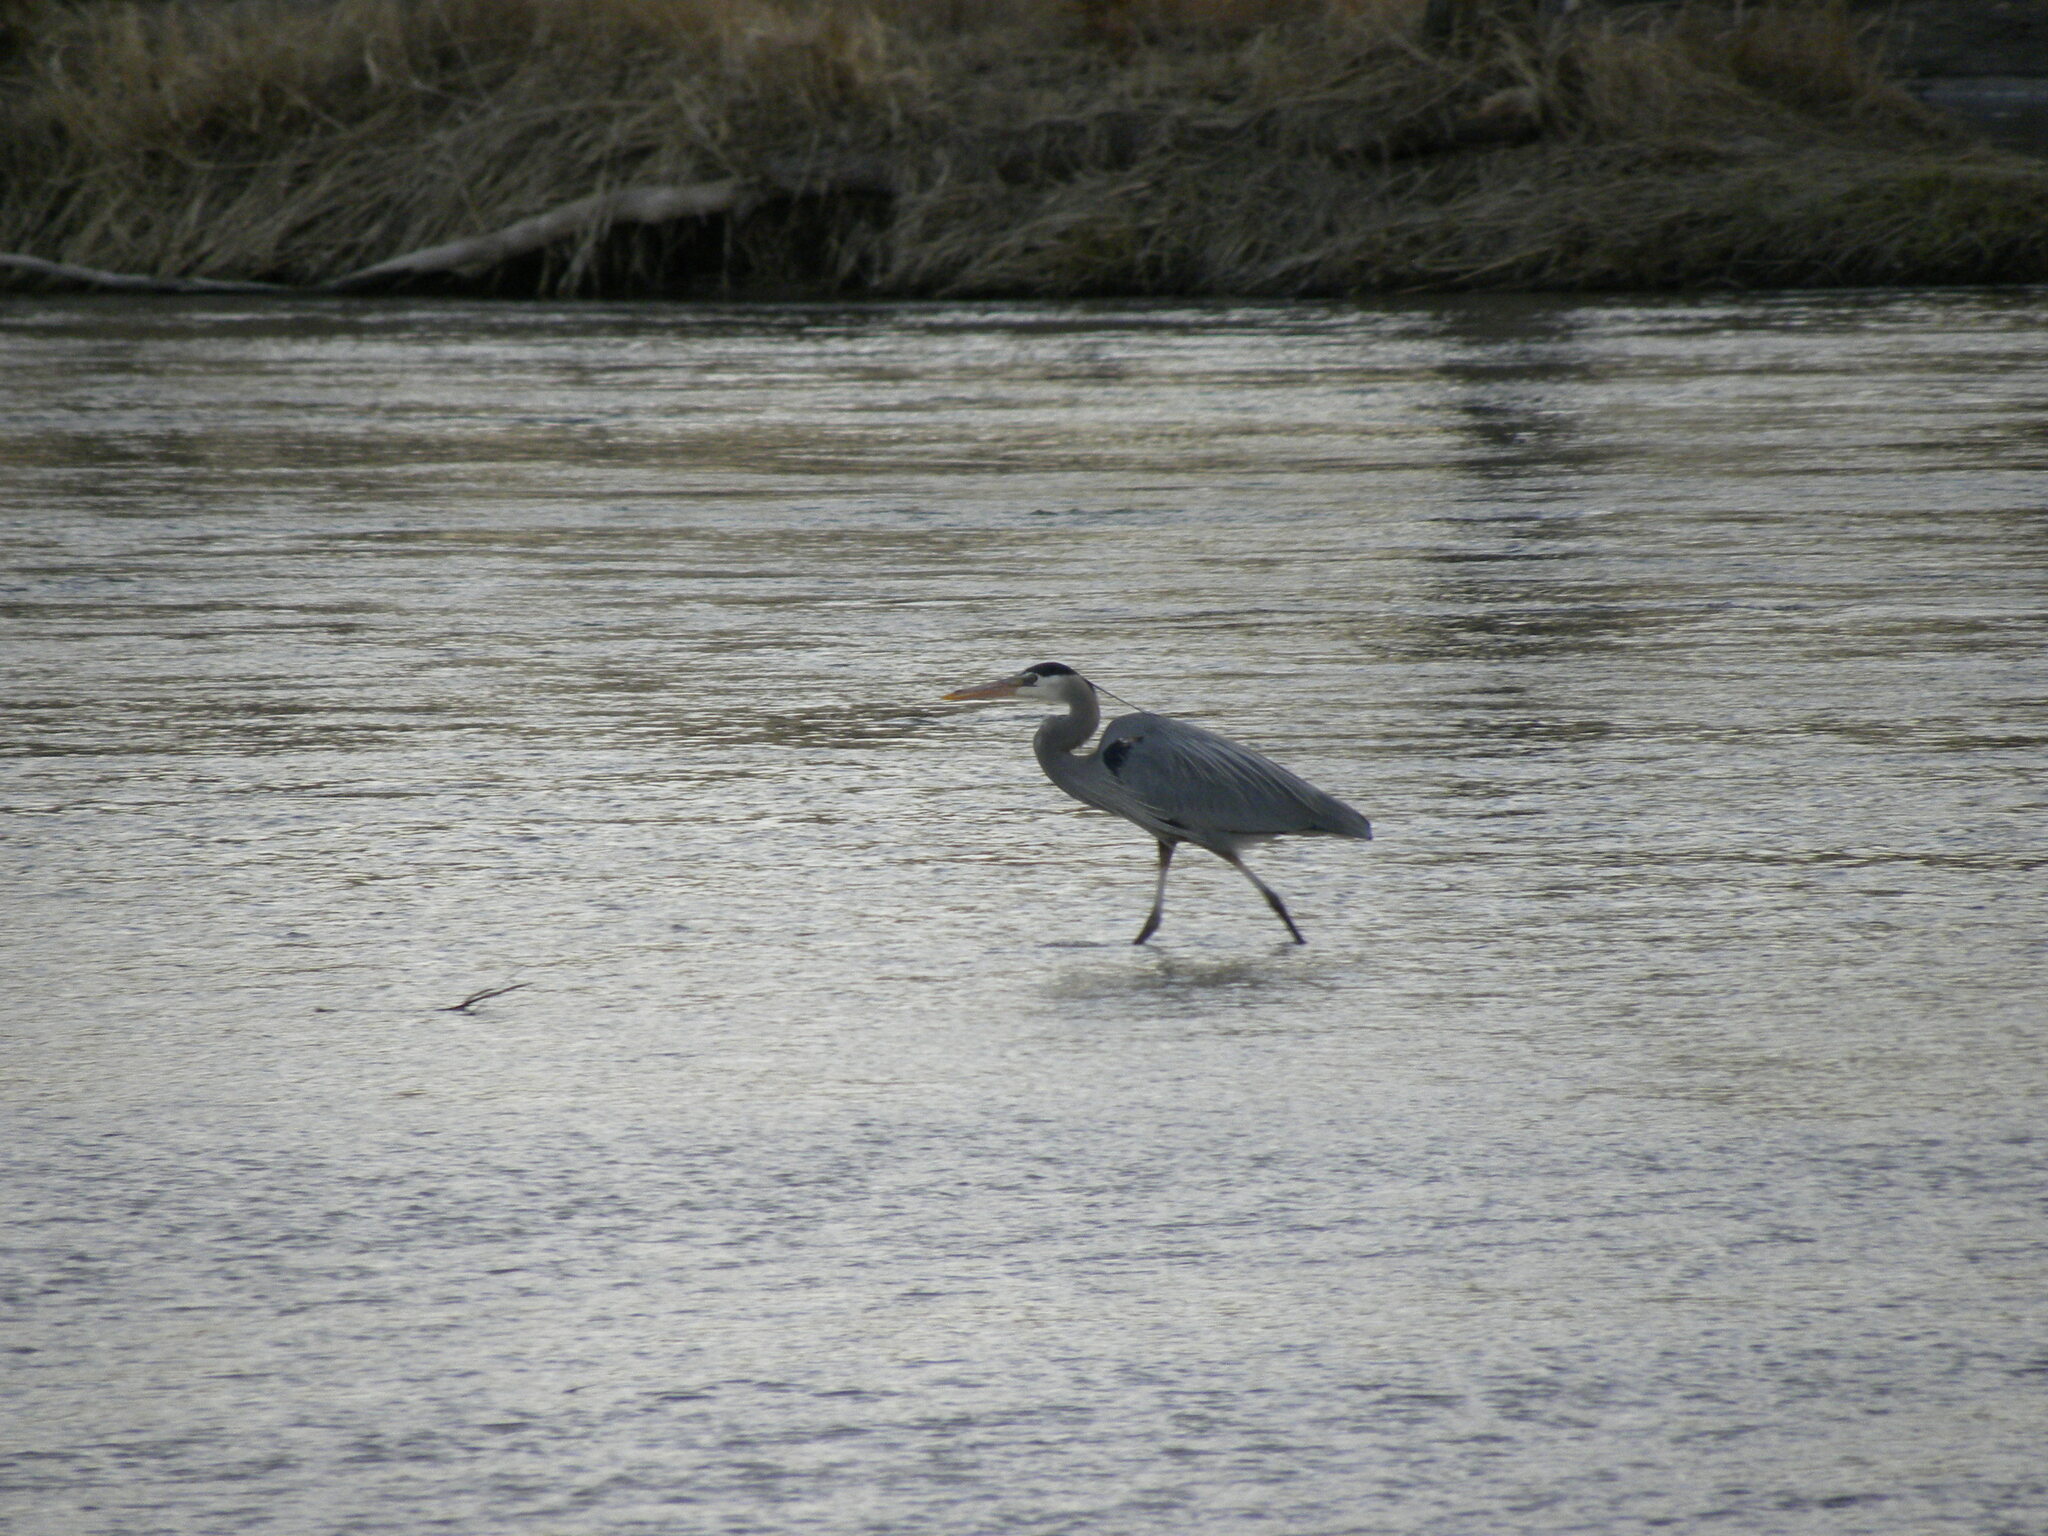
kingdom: Animalia
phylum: Chordata
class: Aves
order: Pelecaniformes
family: Ardeidae
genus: Ardea
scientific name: Ardea herodias
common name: Great blue heron
